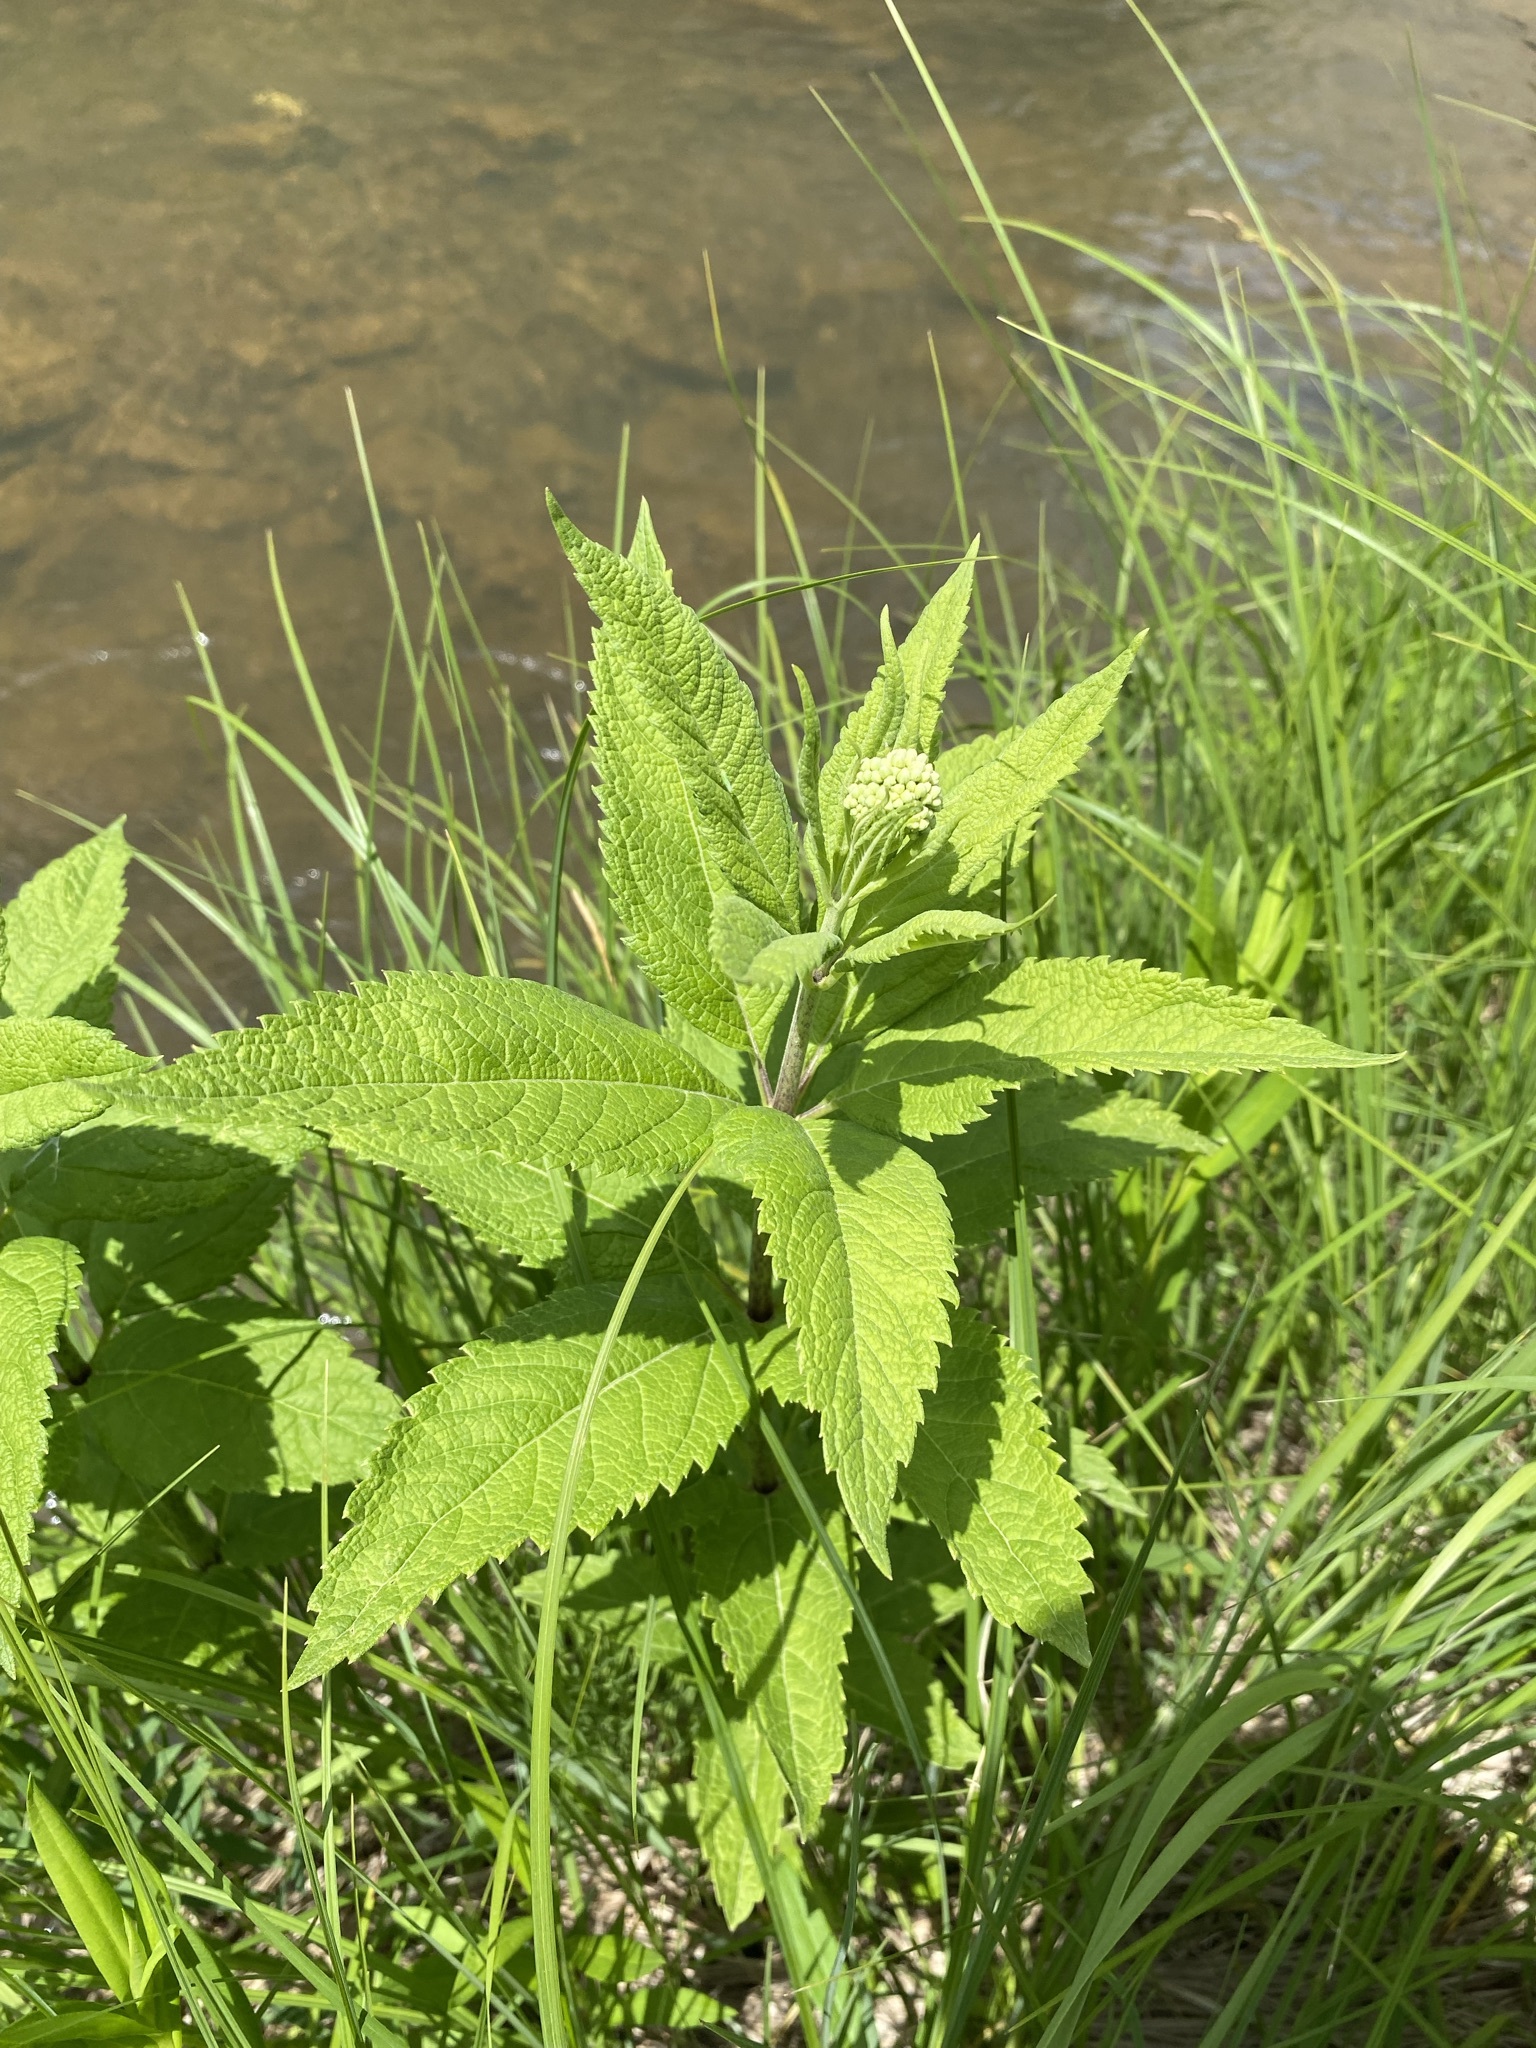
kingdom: Plantae
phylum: Tracheophyta
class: Magnoliopsida
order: Asterales
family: Asteraceae
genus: Eutrochium
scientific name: Eutrochium maculatum
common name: Spotted joe pye weed
